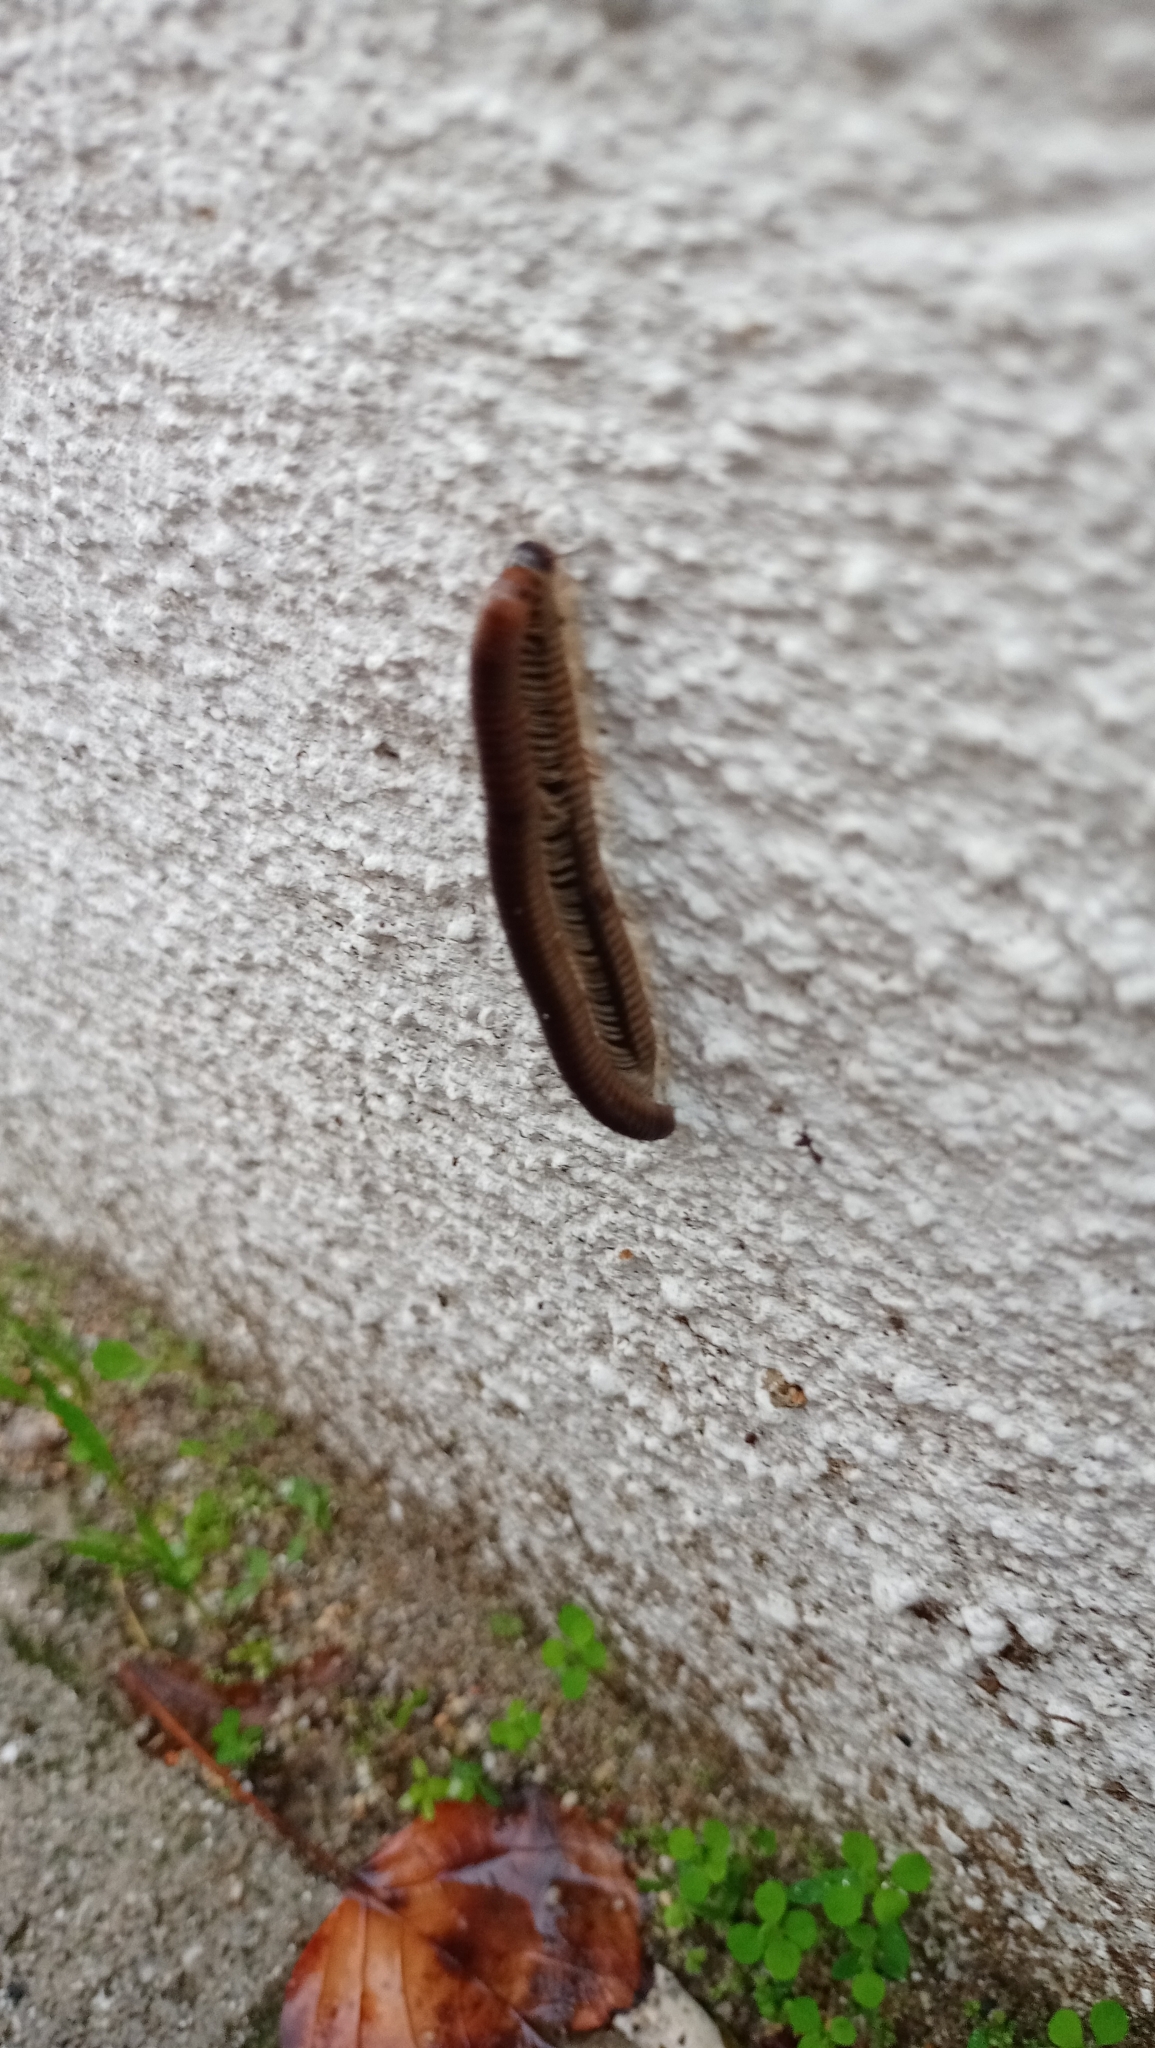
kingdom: Animalia
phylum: Arthropoda
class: Diplopoda
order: Julida
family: Julidae
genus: Pachyiulus
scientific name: Pachyiulus flavipes
